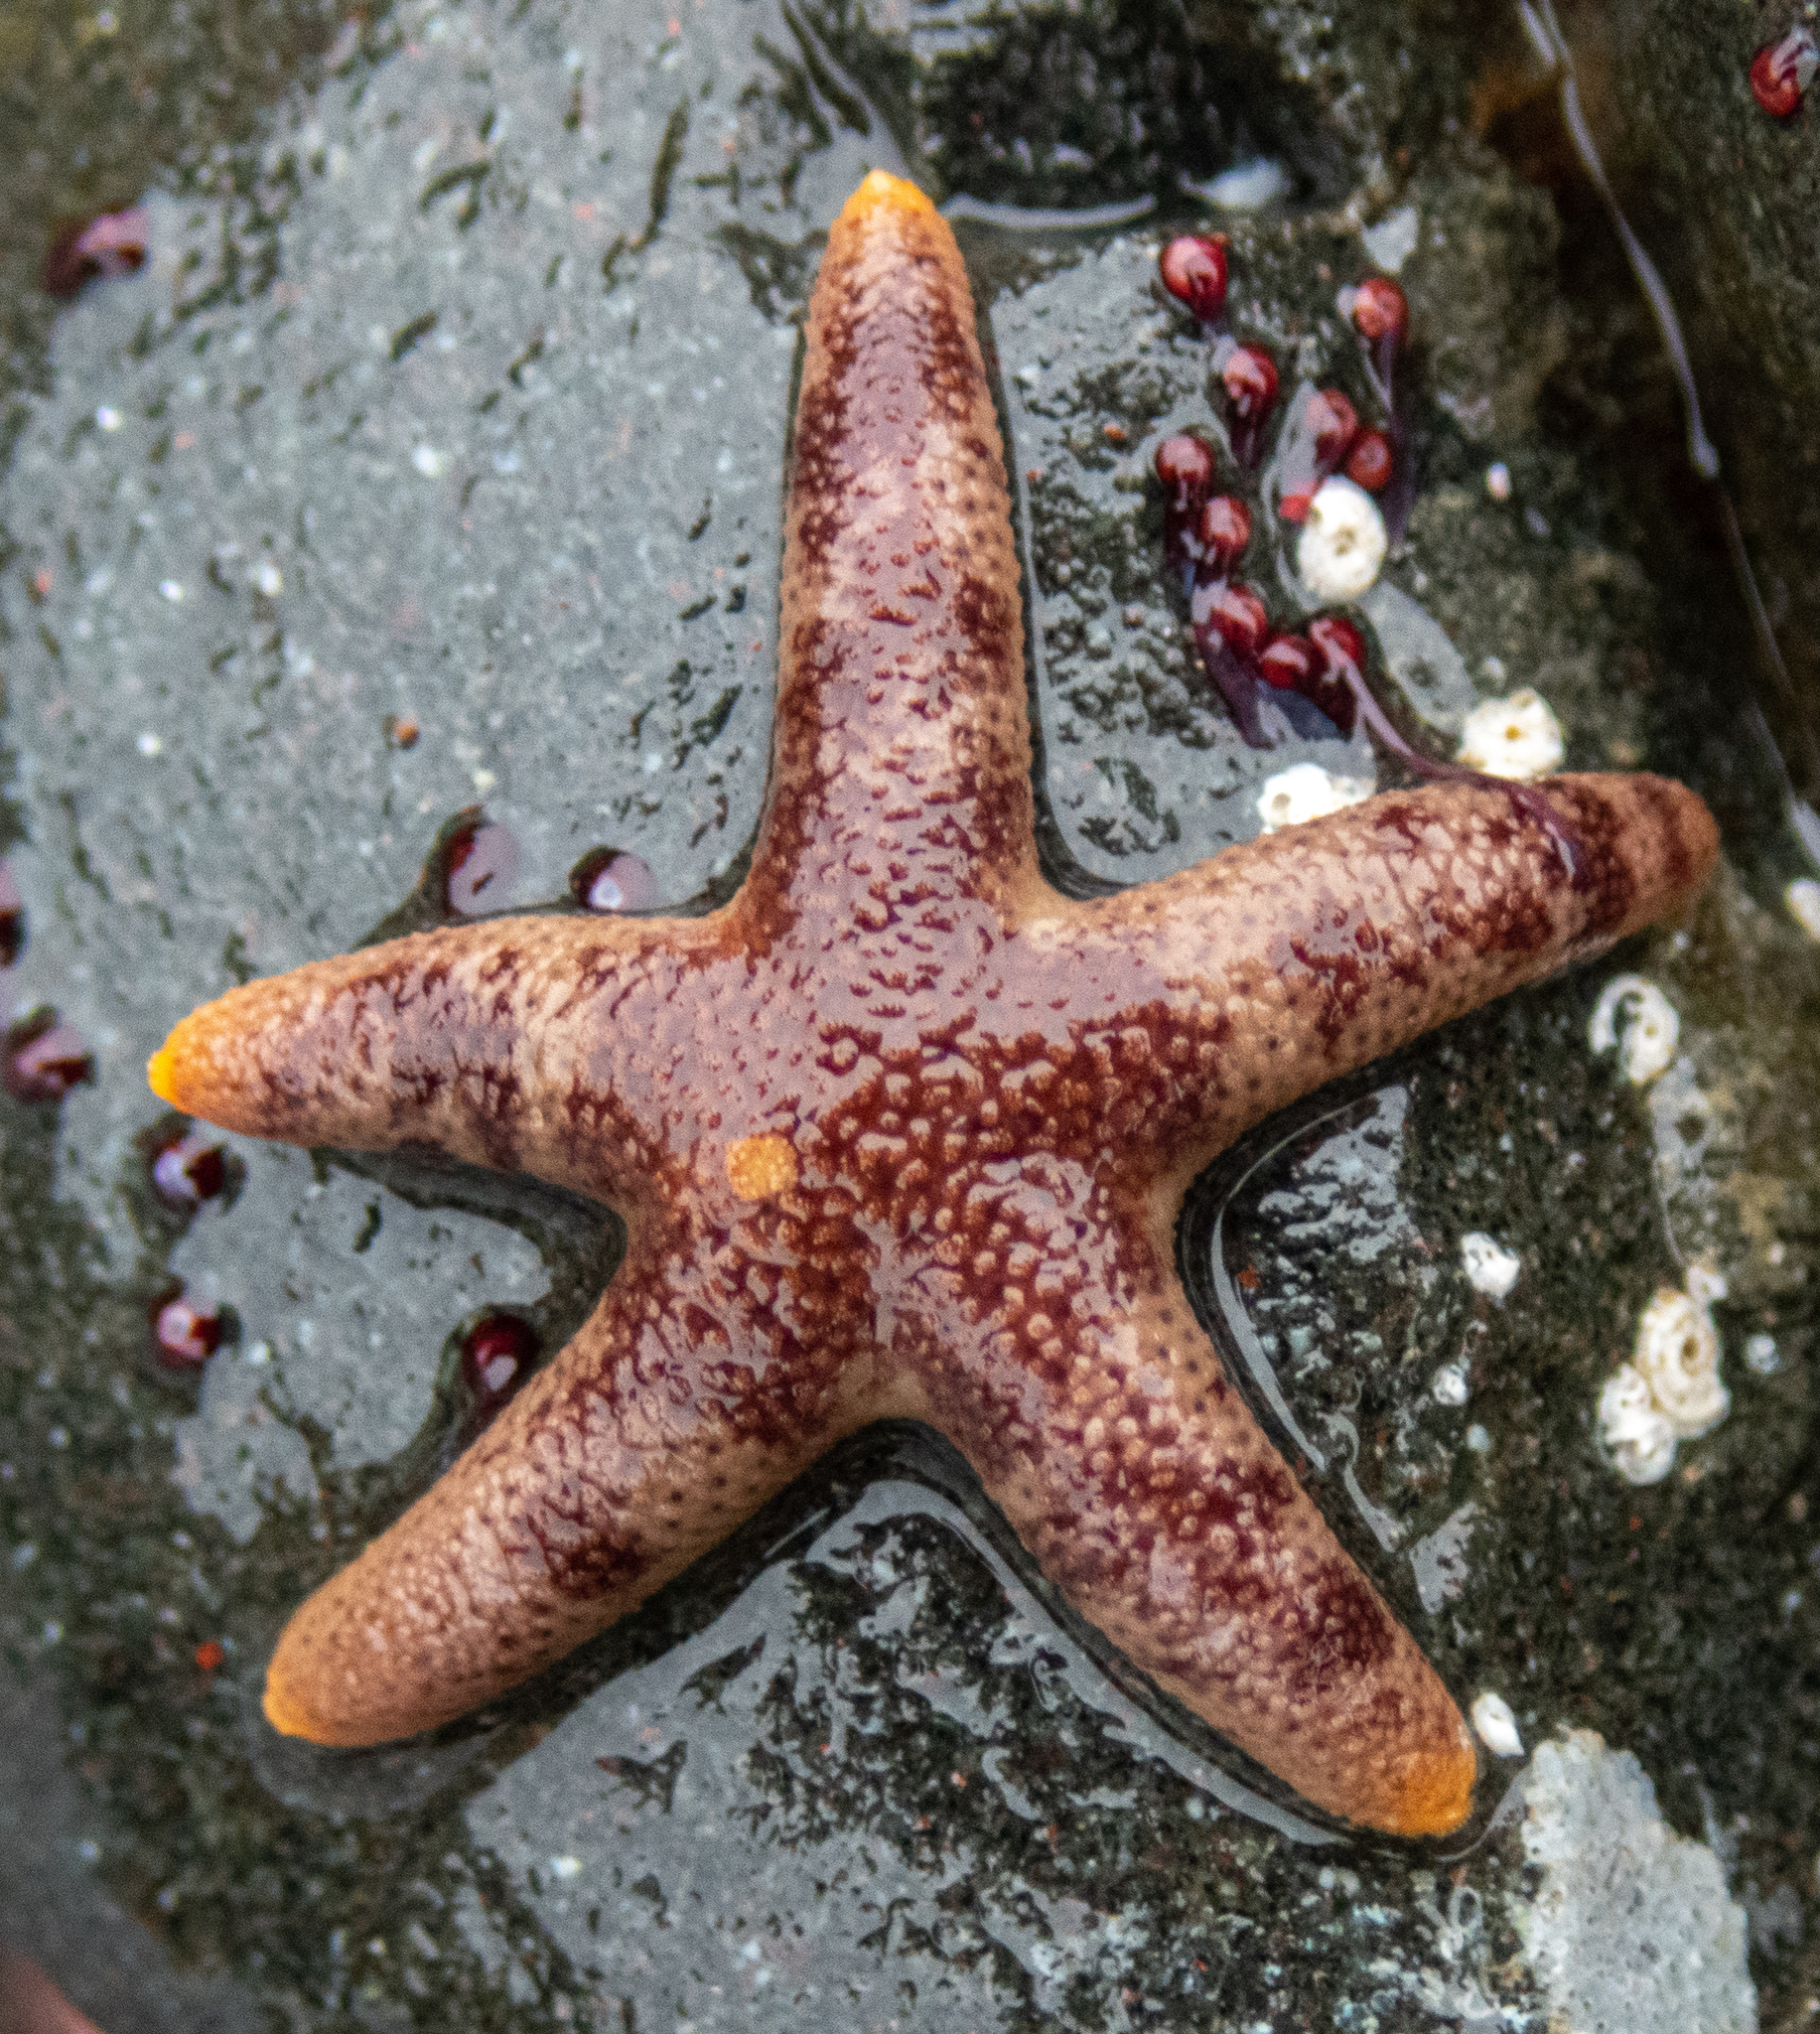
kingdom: Animalia
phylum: Echinodermata
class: Asteroidea
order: Spinulosida
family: Echinasteridae
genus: Henricia
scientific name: Henricia pumila
